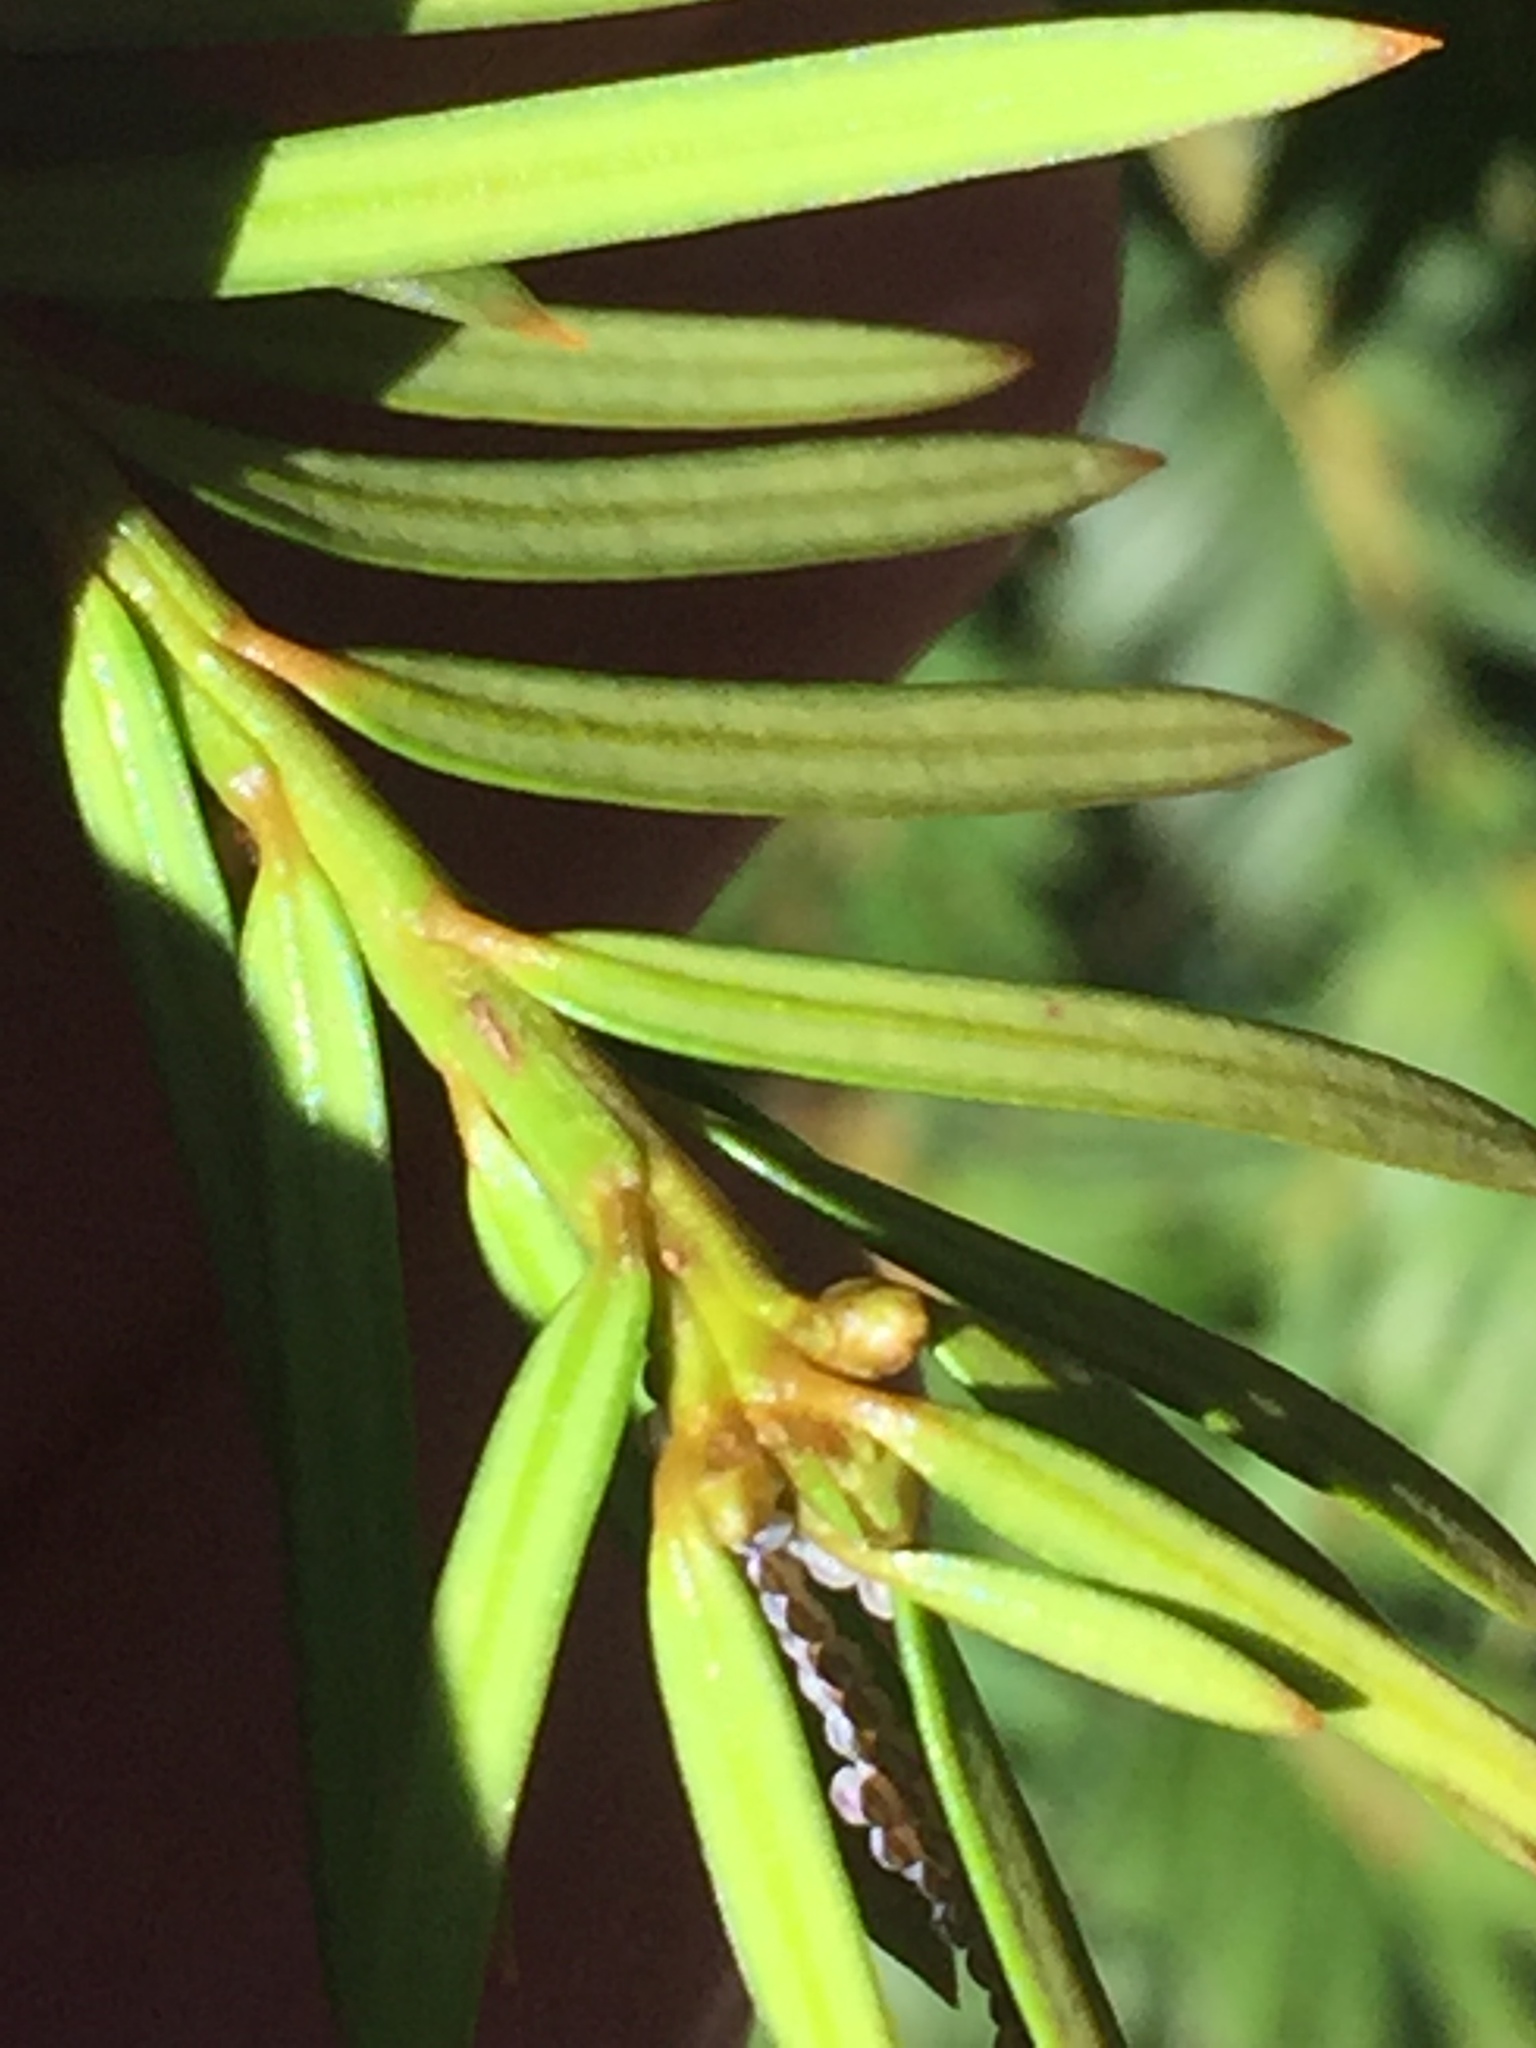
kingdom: Plantae
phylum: Tracheophyta
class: Pinopsida
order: Pinales
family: Taxaceae
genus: Taxus
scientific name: Taxus baccata
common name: Yew
